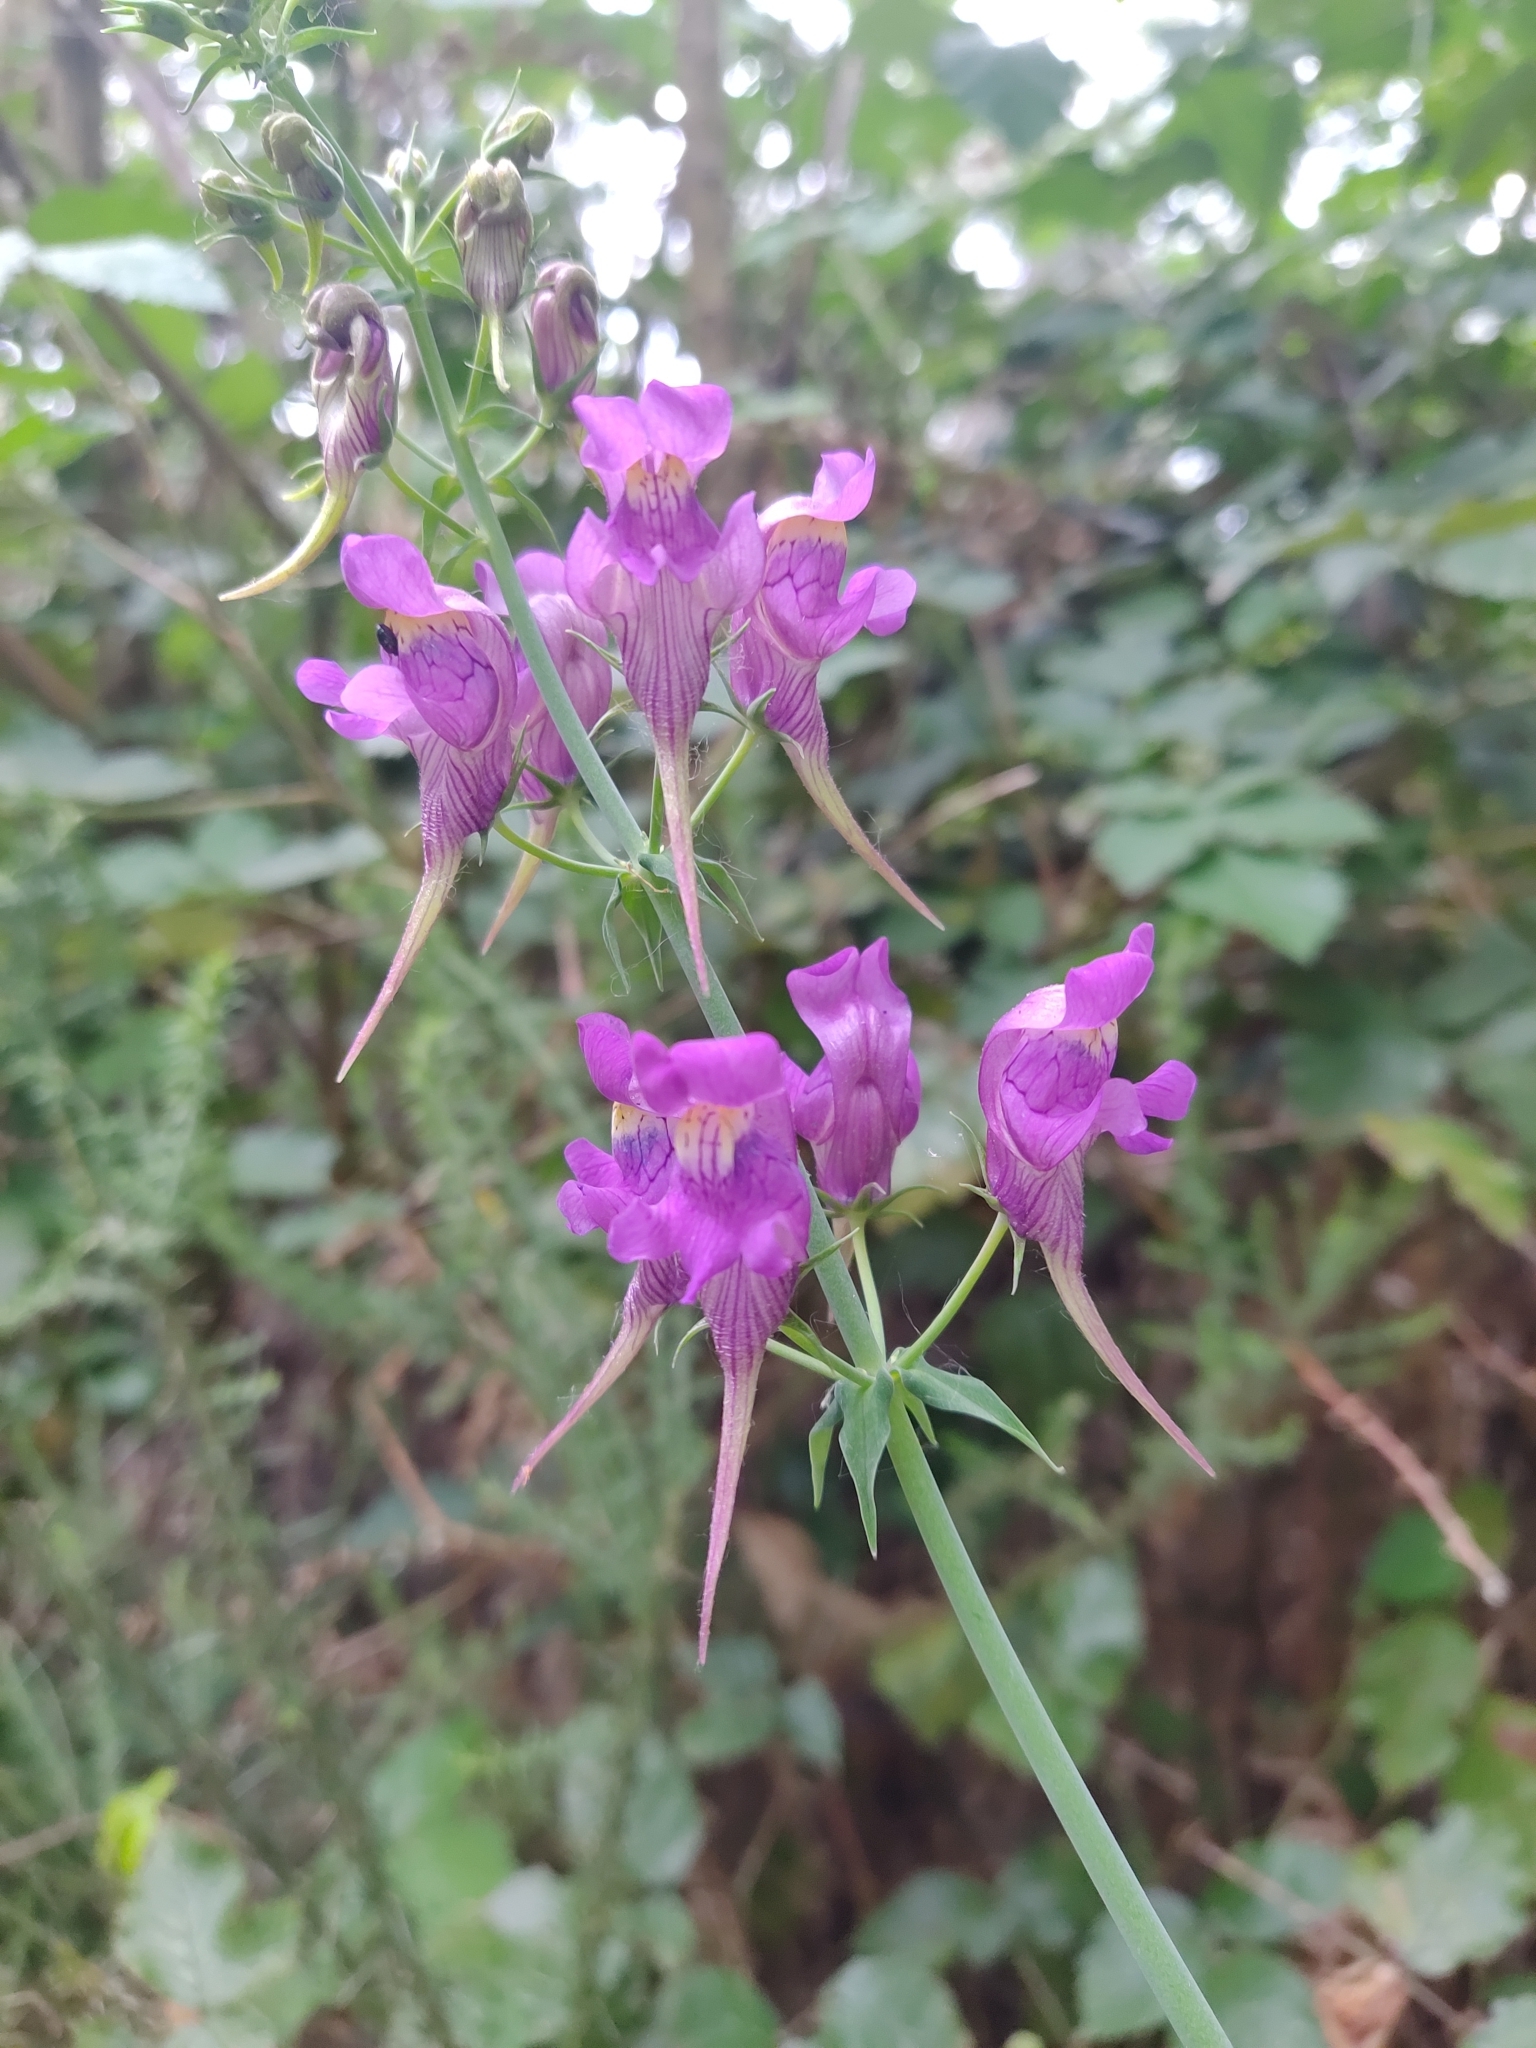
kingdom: Plantae
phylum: Tracheophyta
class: Magnoliopsida
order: Lamiales
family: Plantaginaceae
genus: Linaria
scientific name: Linaria triornithophora
